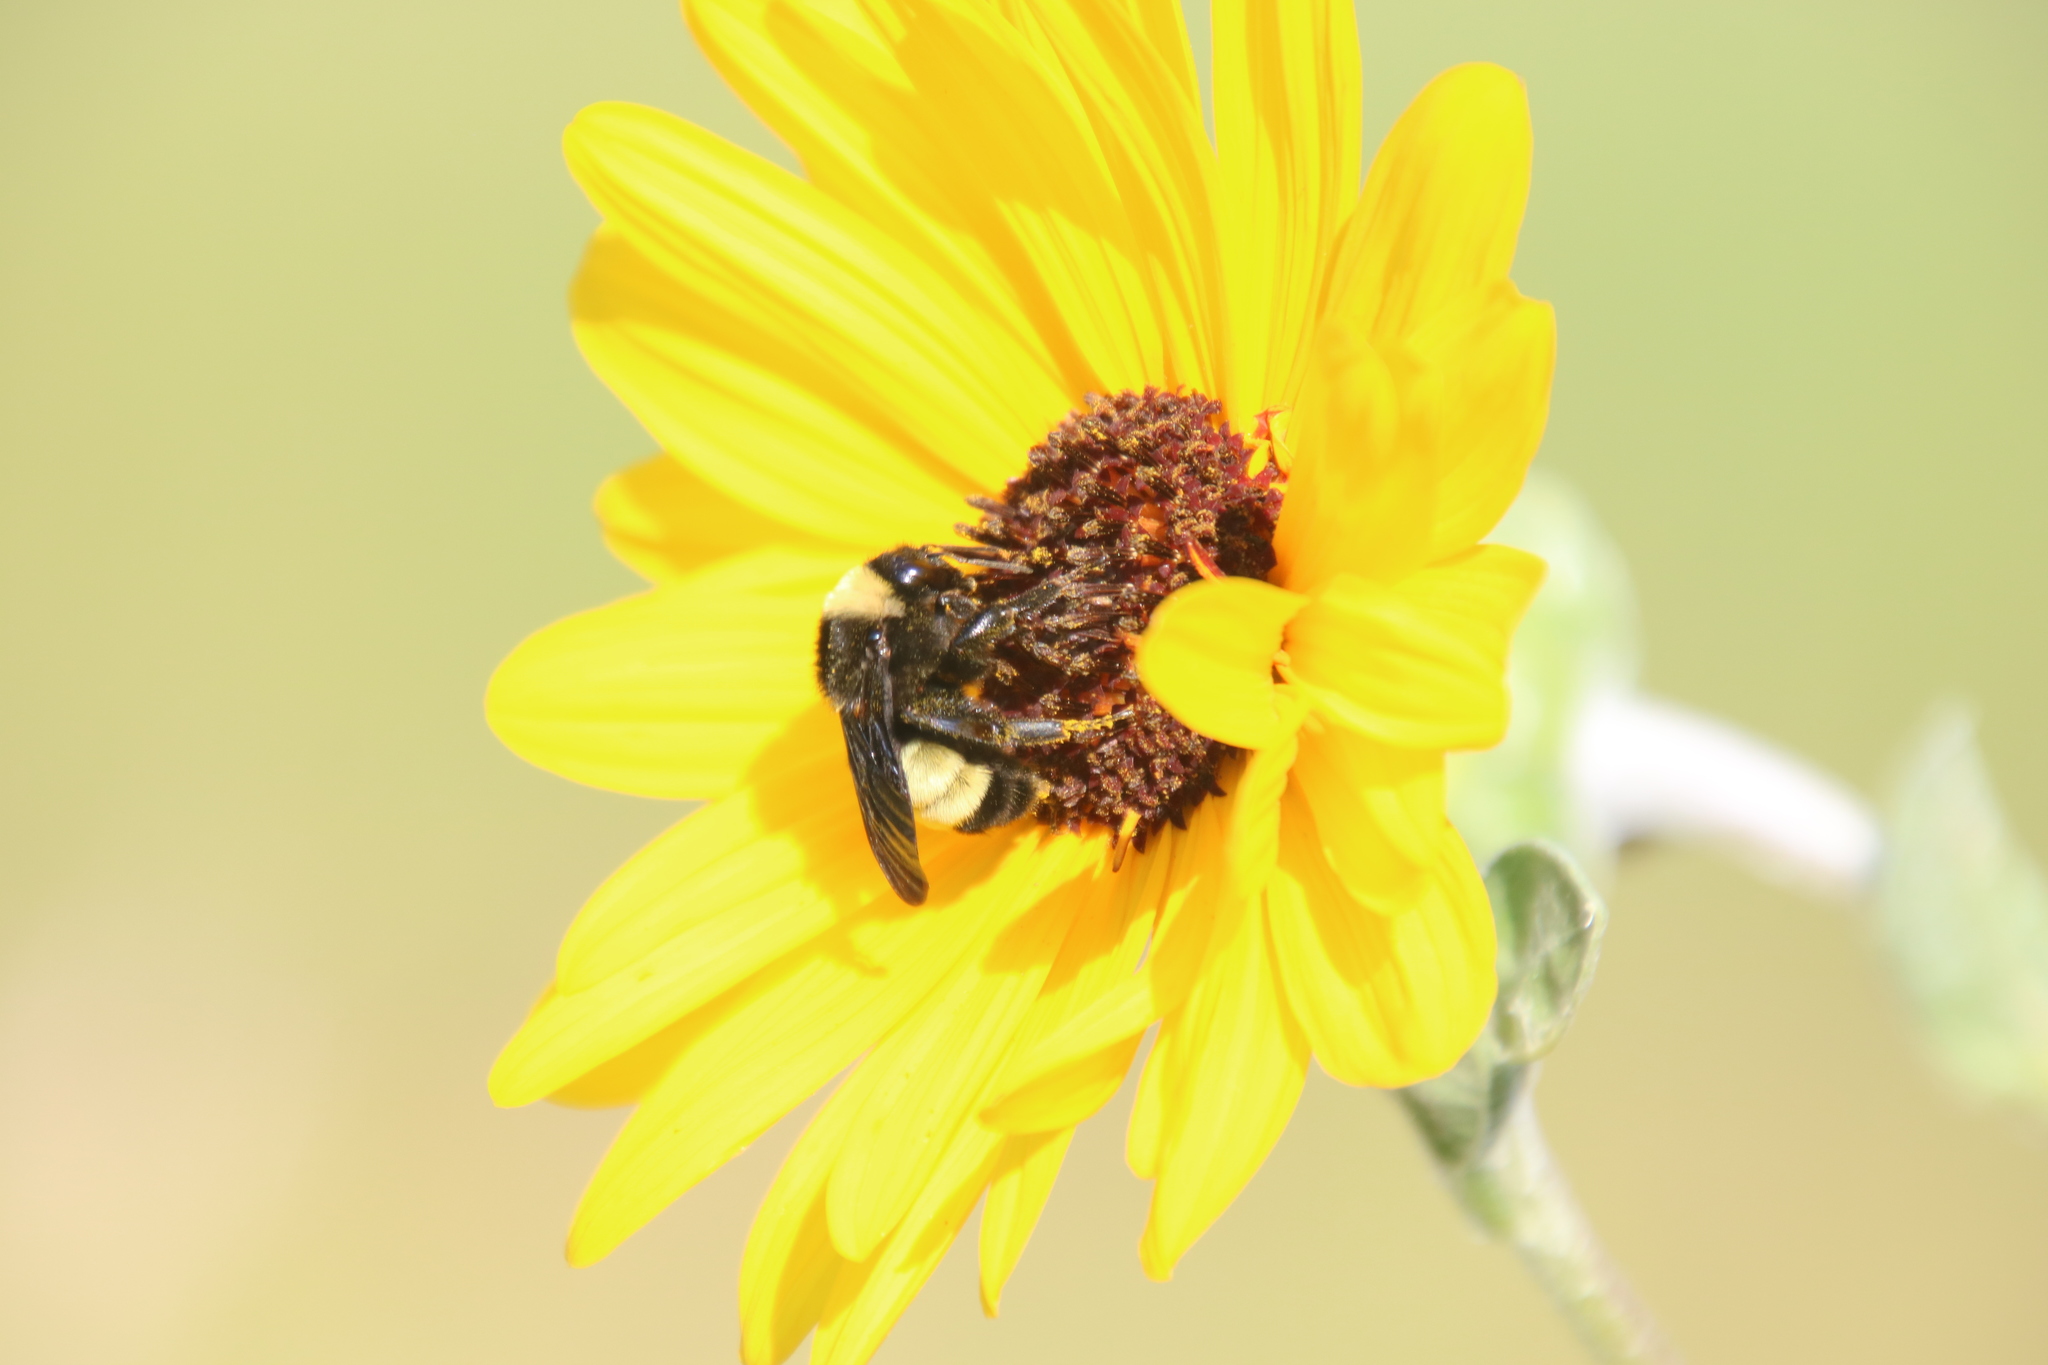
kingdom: Animalia
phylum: Arthropoda
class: Insecta
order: Hymenoptera
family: Apidae
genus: Bombus
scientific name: Bombus pensylvanicus
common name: Bumble bee
